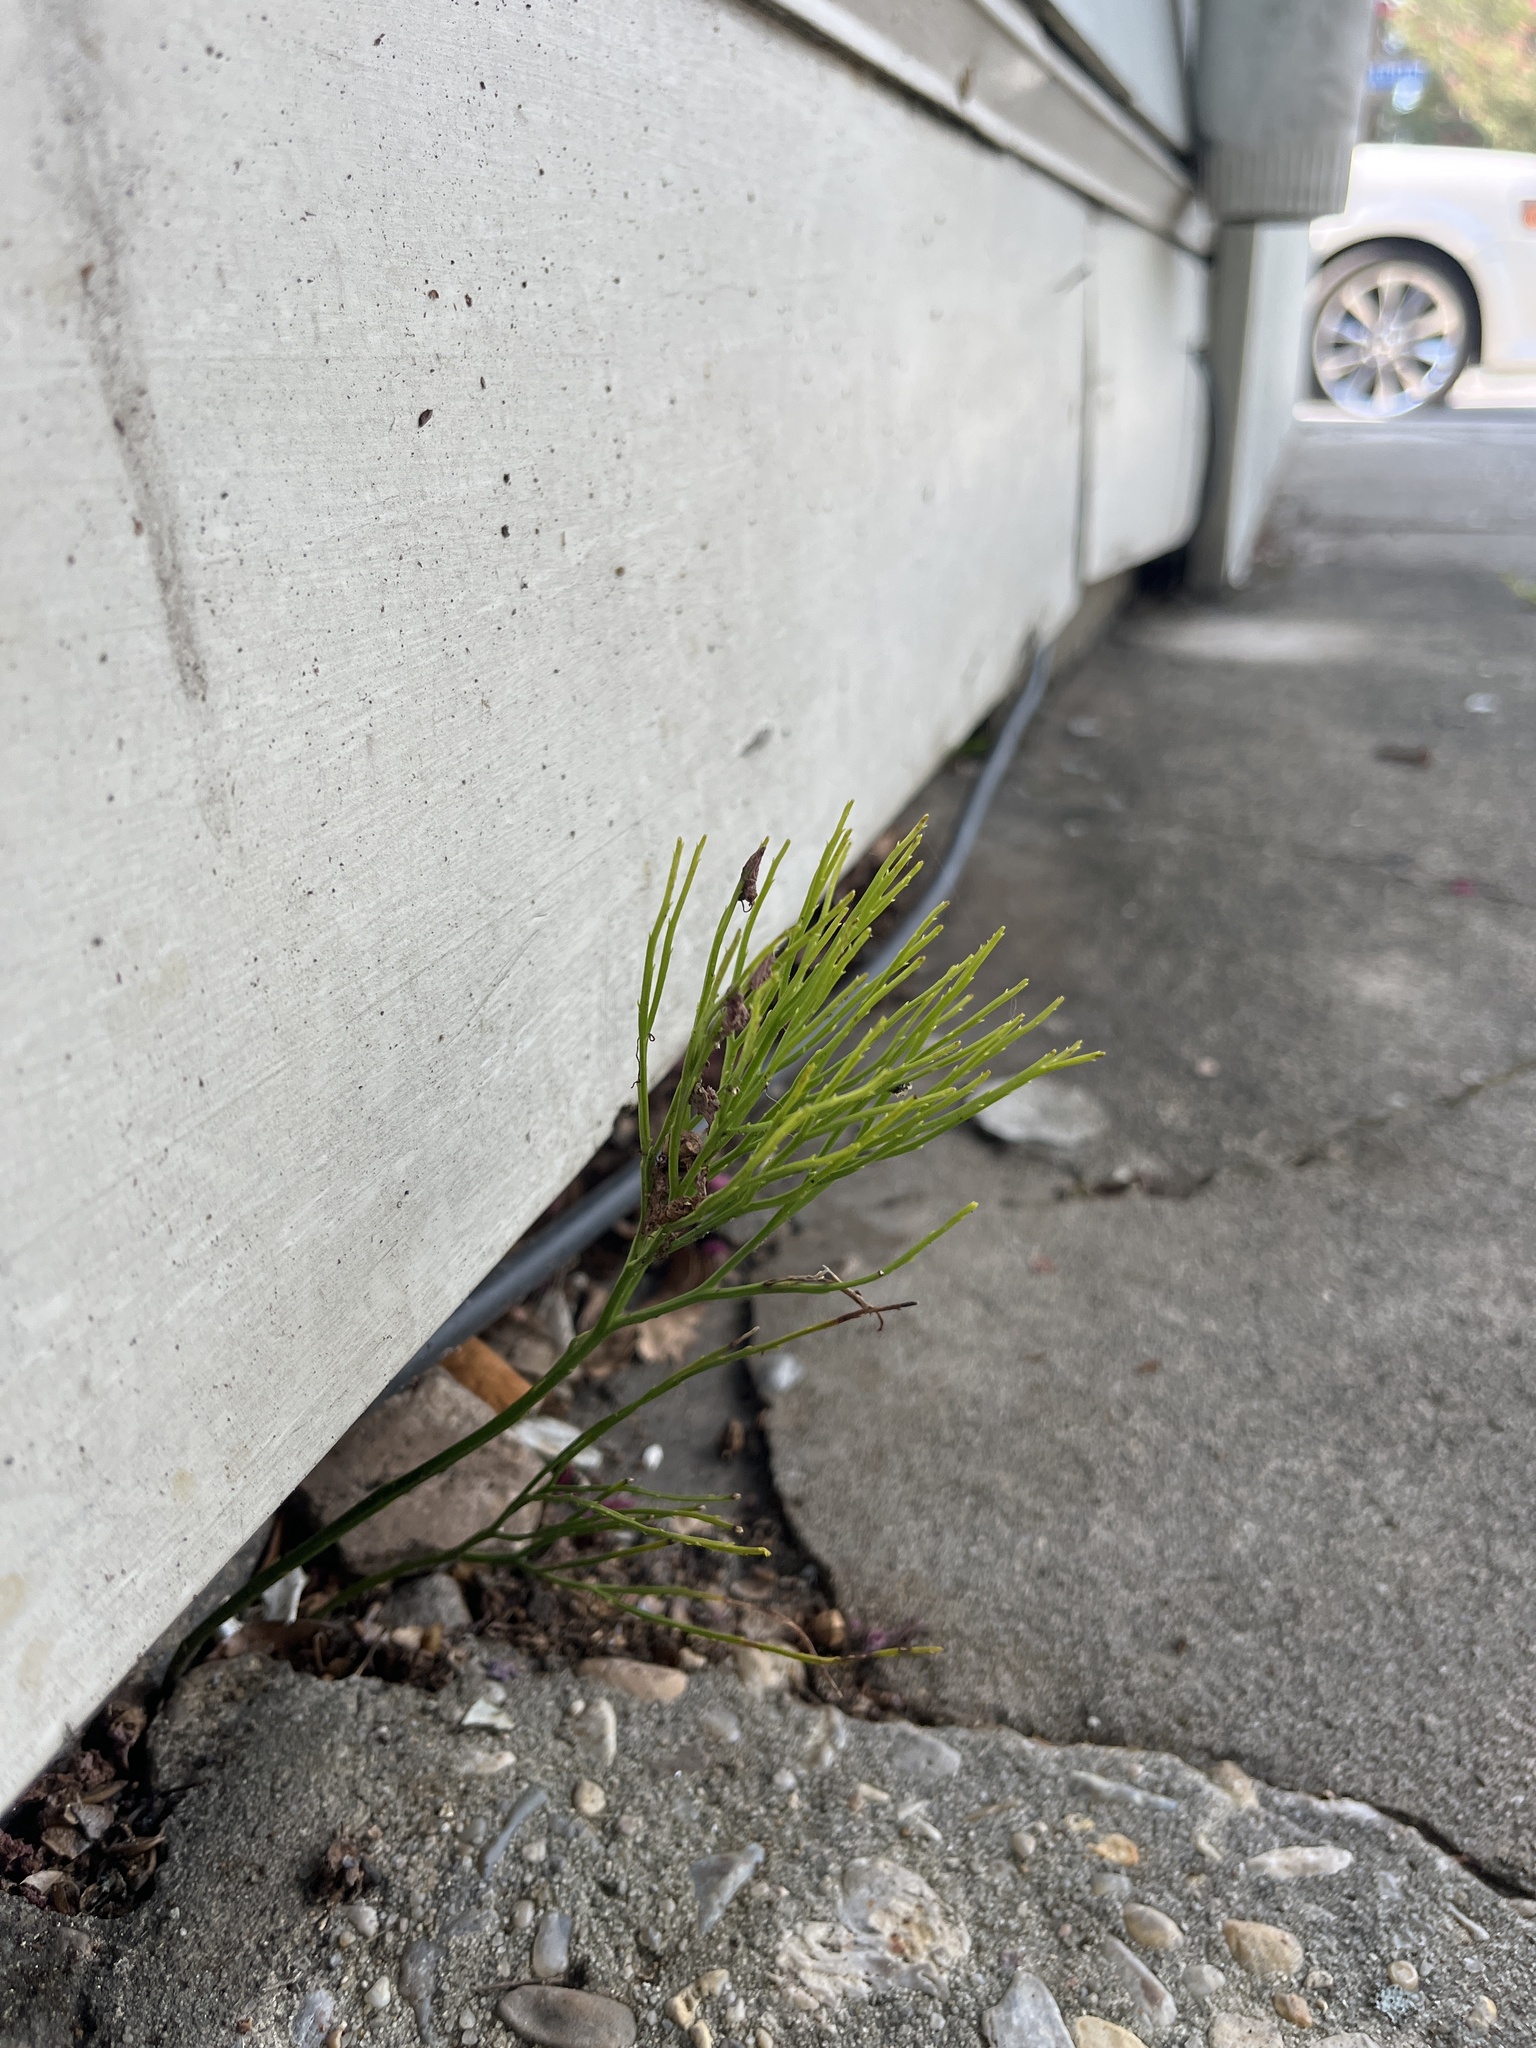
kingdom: Plantae
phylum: Tracheophyta
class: Polypodiopsida
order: Psilotales
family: Psilotaceae
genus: Psilotum
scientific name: Psilotum nudum
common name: Skeleton fork fern
